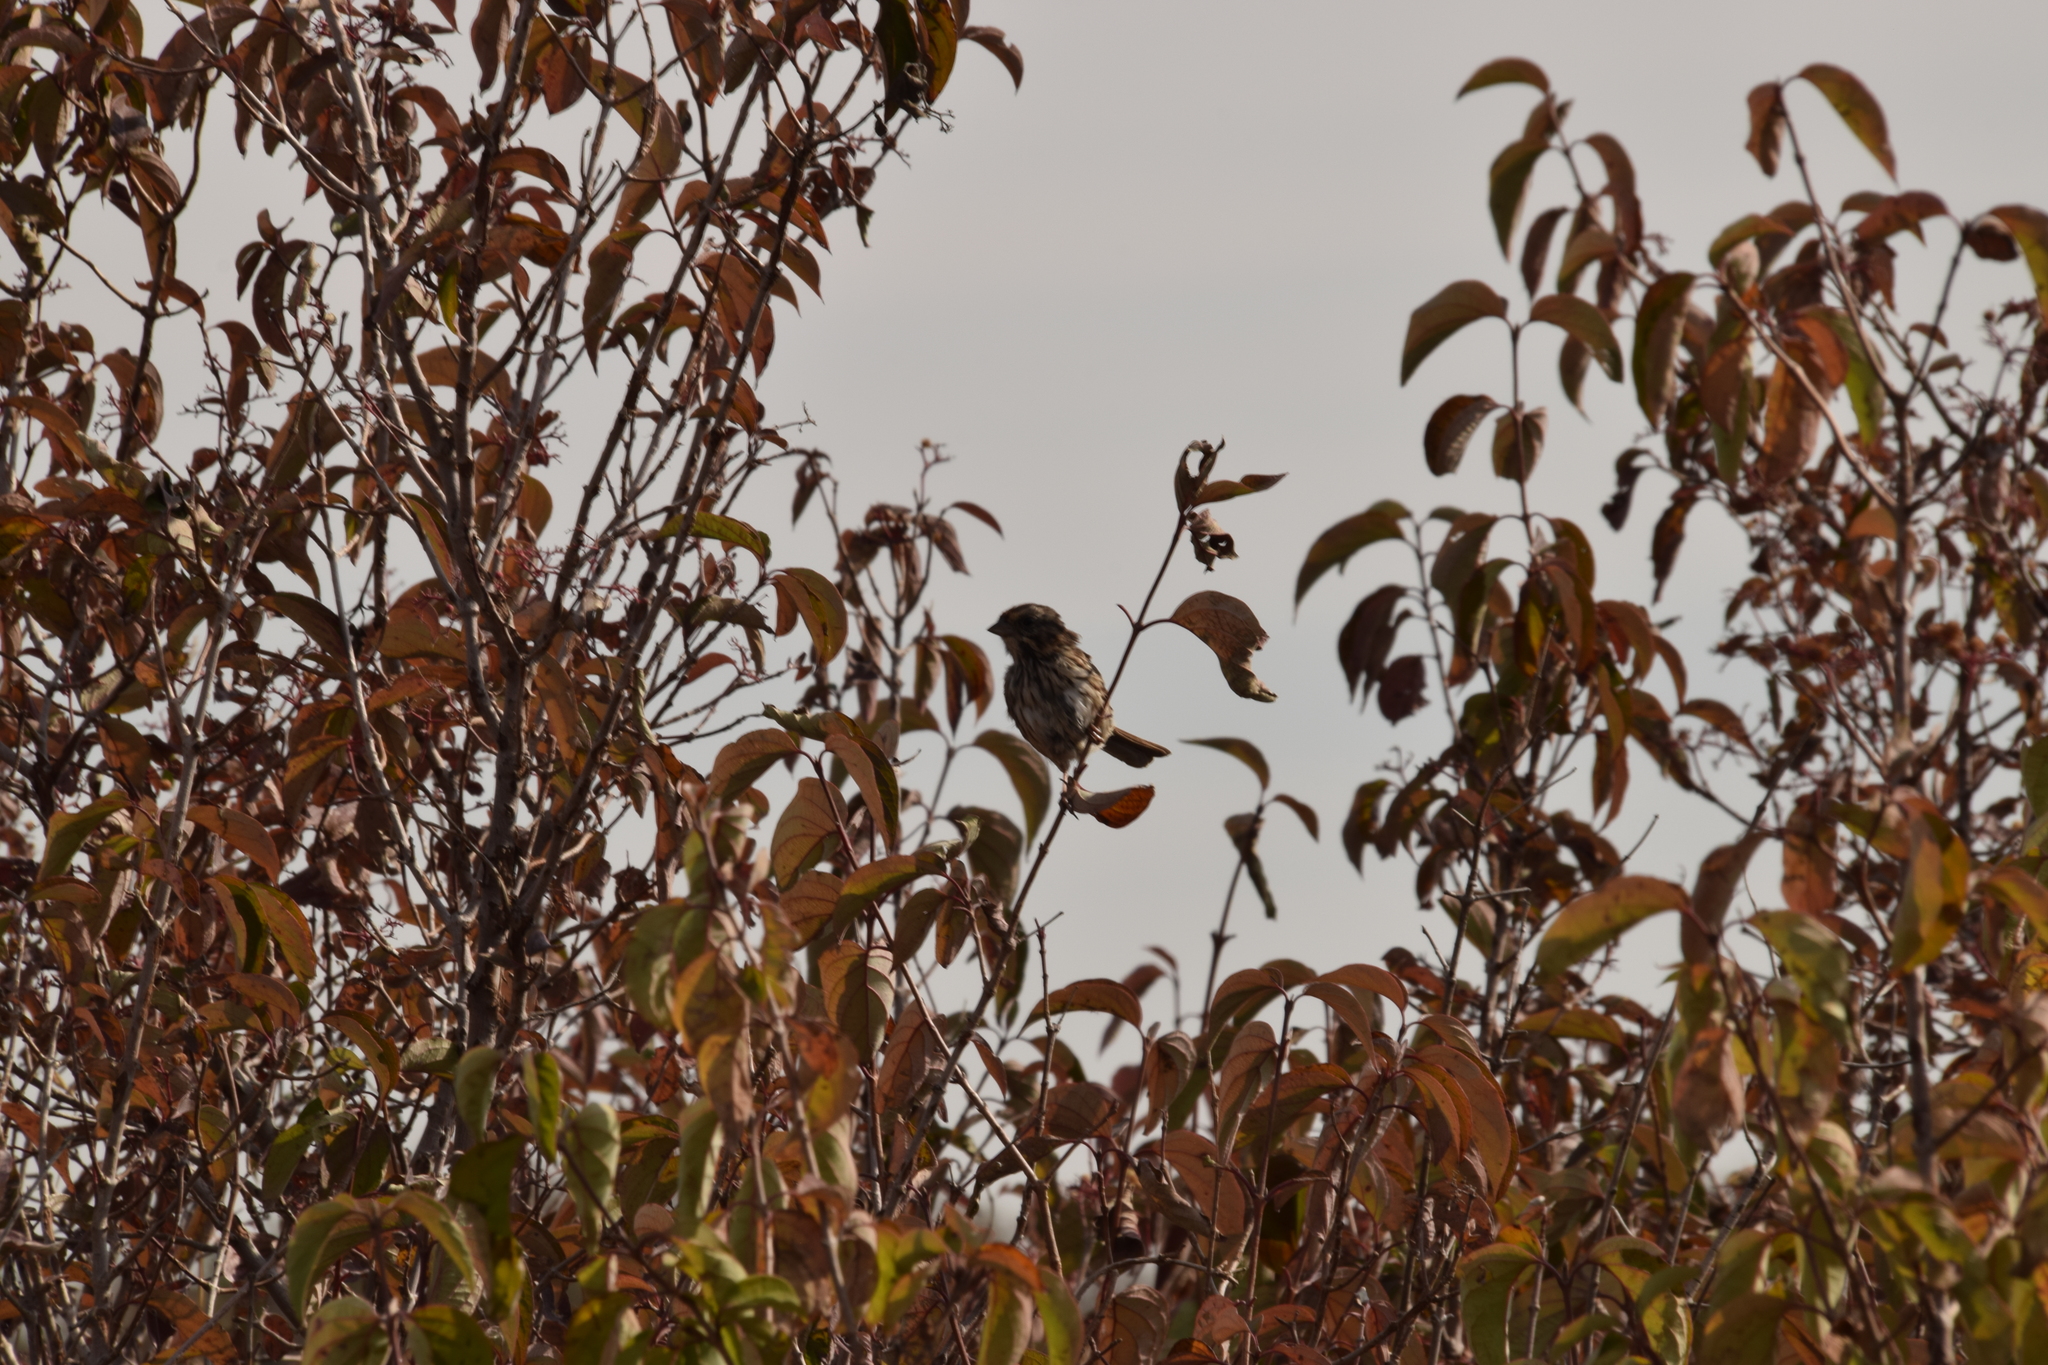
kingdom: Animalia
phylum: Chordata
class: Aves
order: Passeriformes
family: Passerellidae
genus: Melospiza
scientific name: Melospiza melodia
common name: Song sparrow
